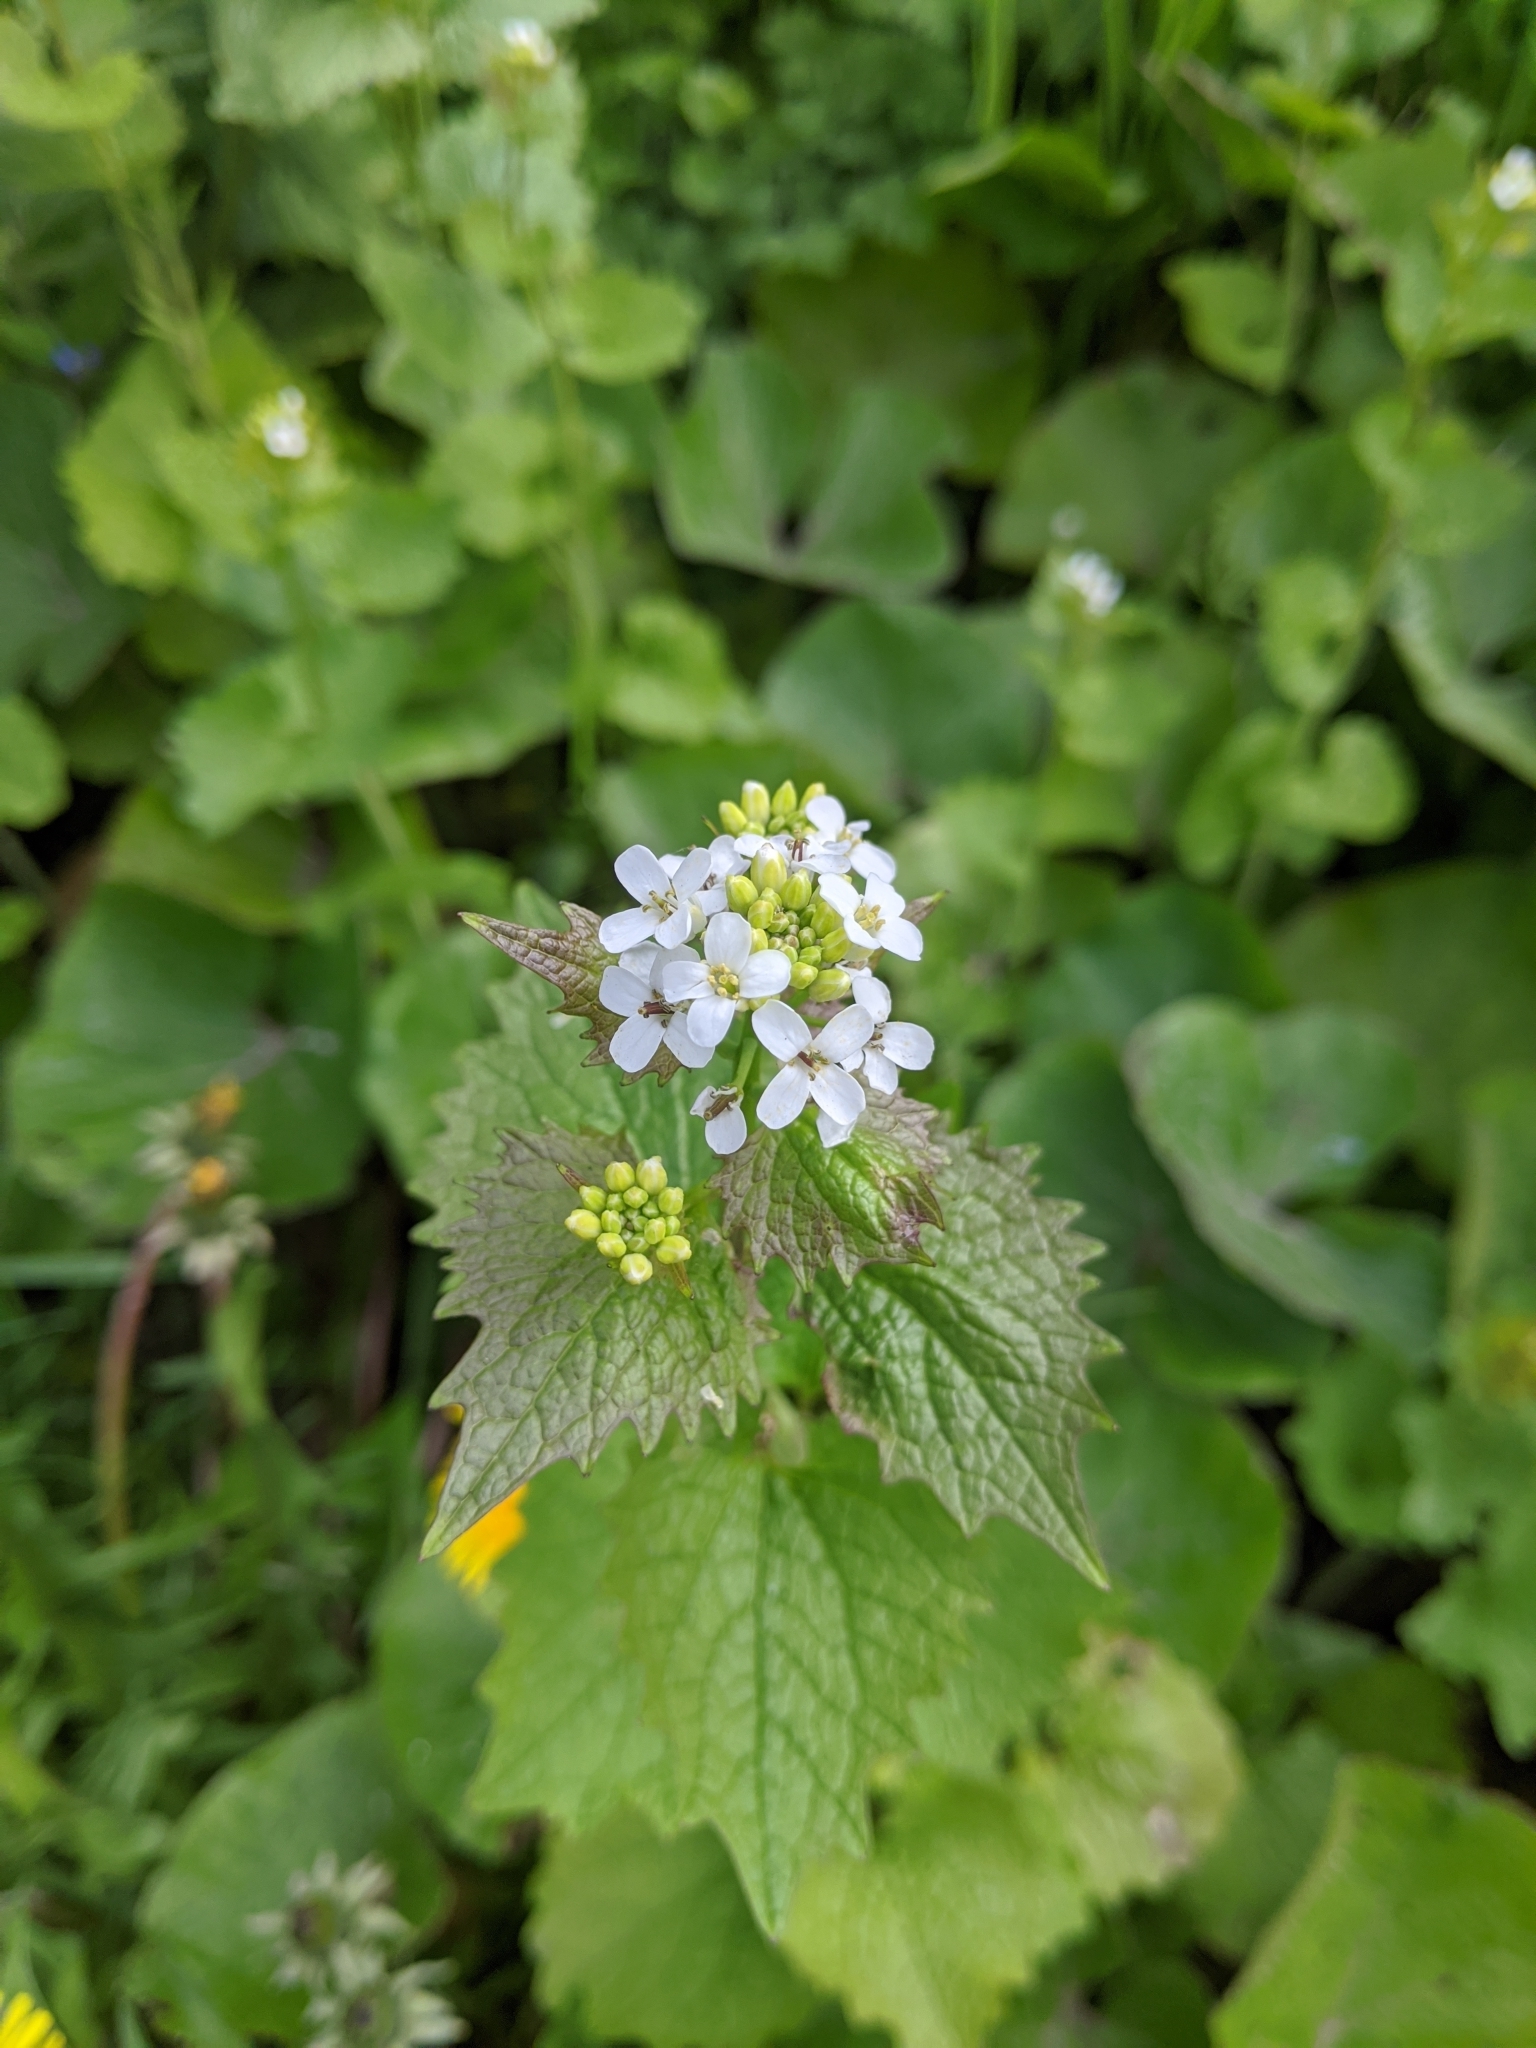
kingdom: Plantae
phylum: Tracheophyta
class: Magnoliopsida
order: Brassicales
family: Brassicaceae
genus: Alliaria
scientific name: Alliaria petiolata
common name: Garlic mustard
